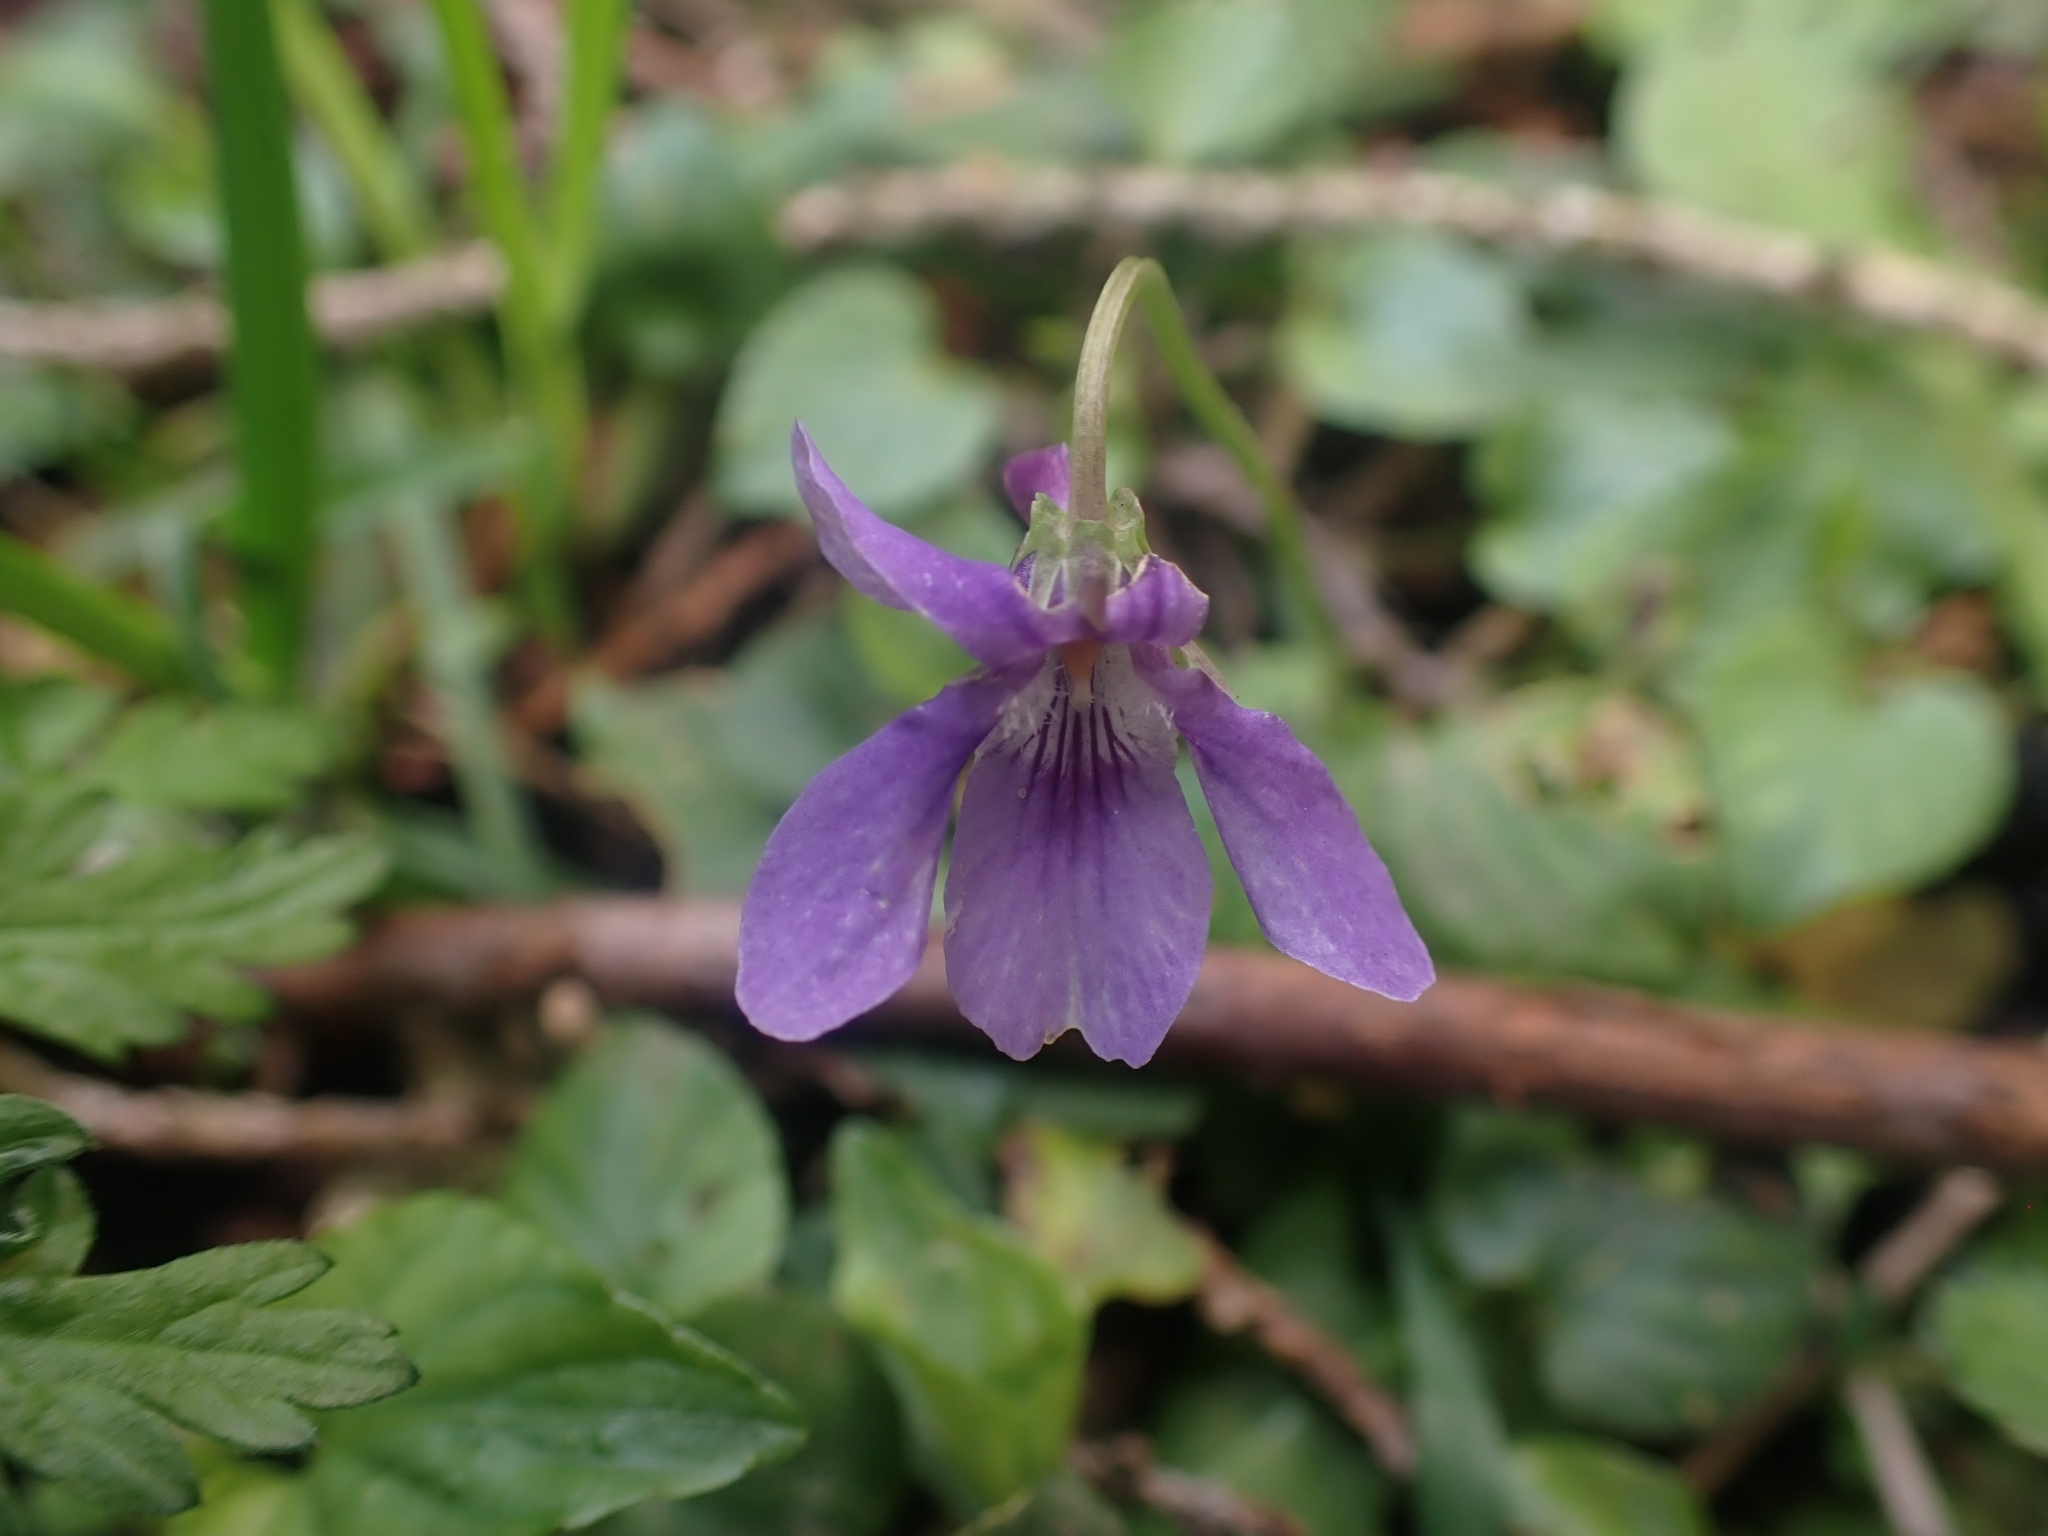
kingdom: Plantae
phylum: Tracheophyta
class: Magnoliopsida
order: Malpighiales
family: Violaceae
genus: Viola
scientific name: Viola reichenbachiana
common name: Early dog-violet
